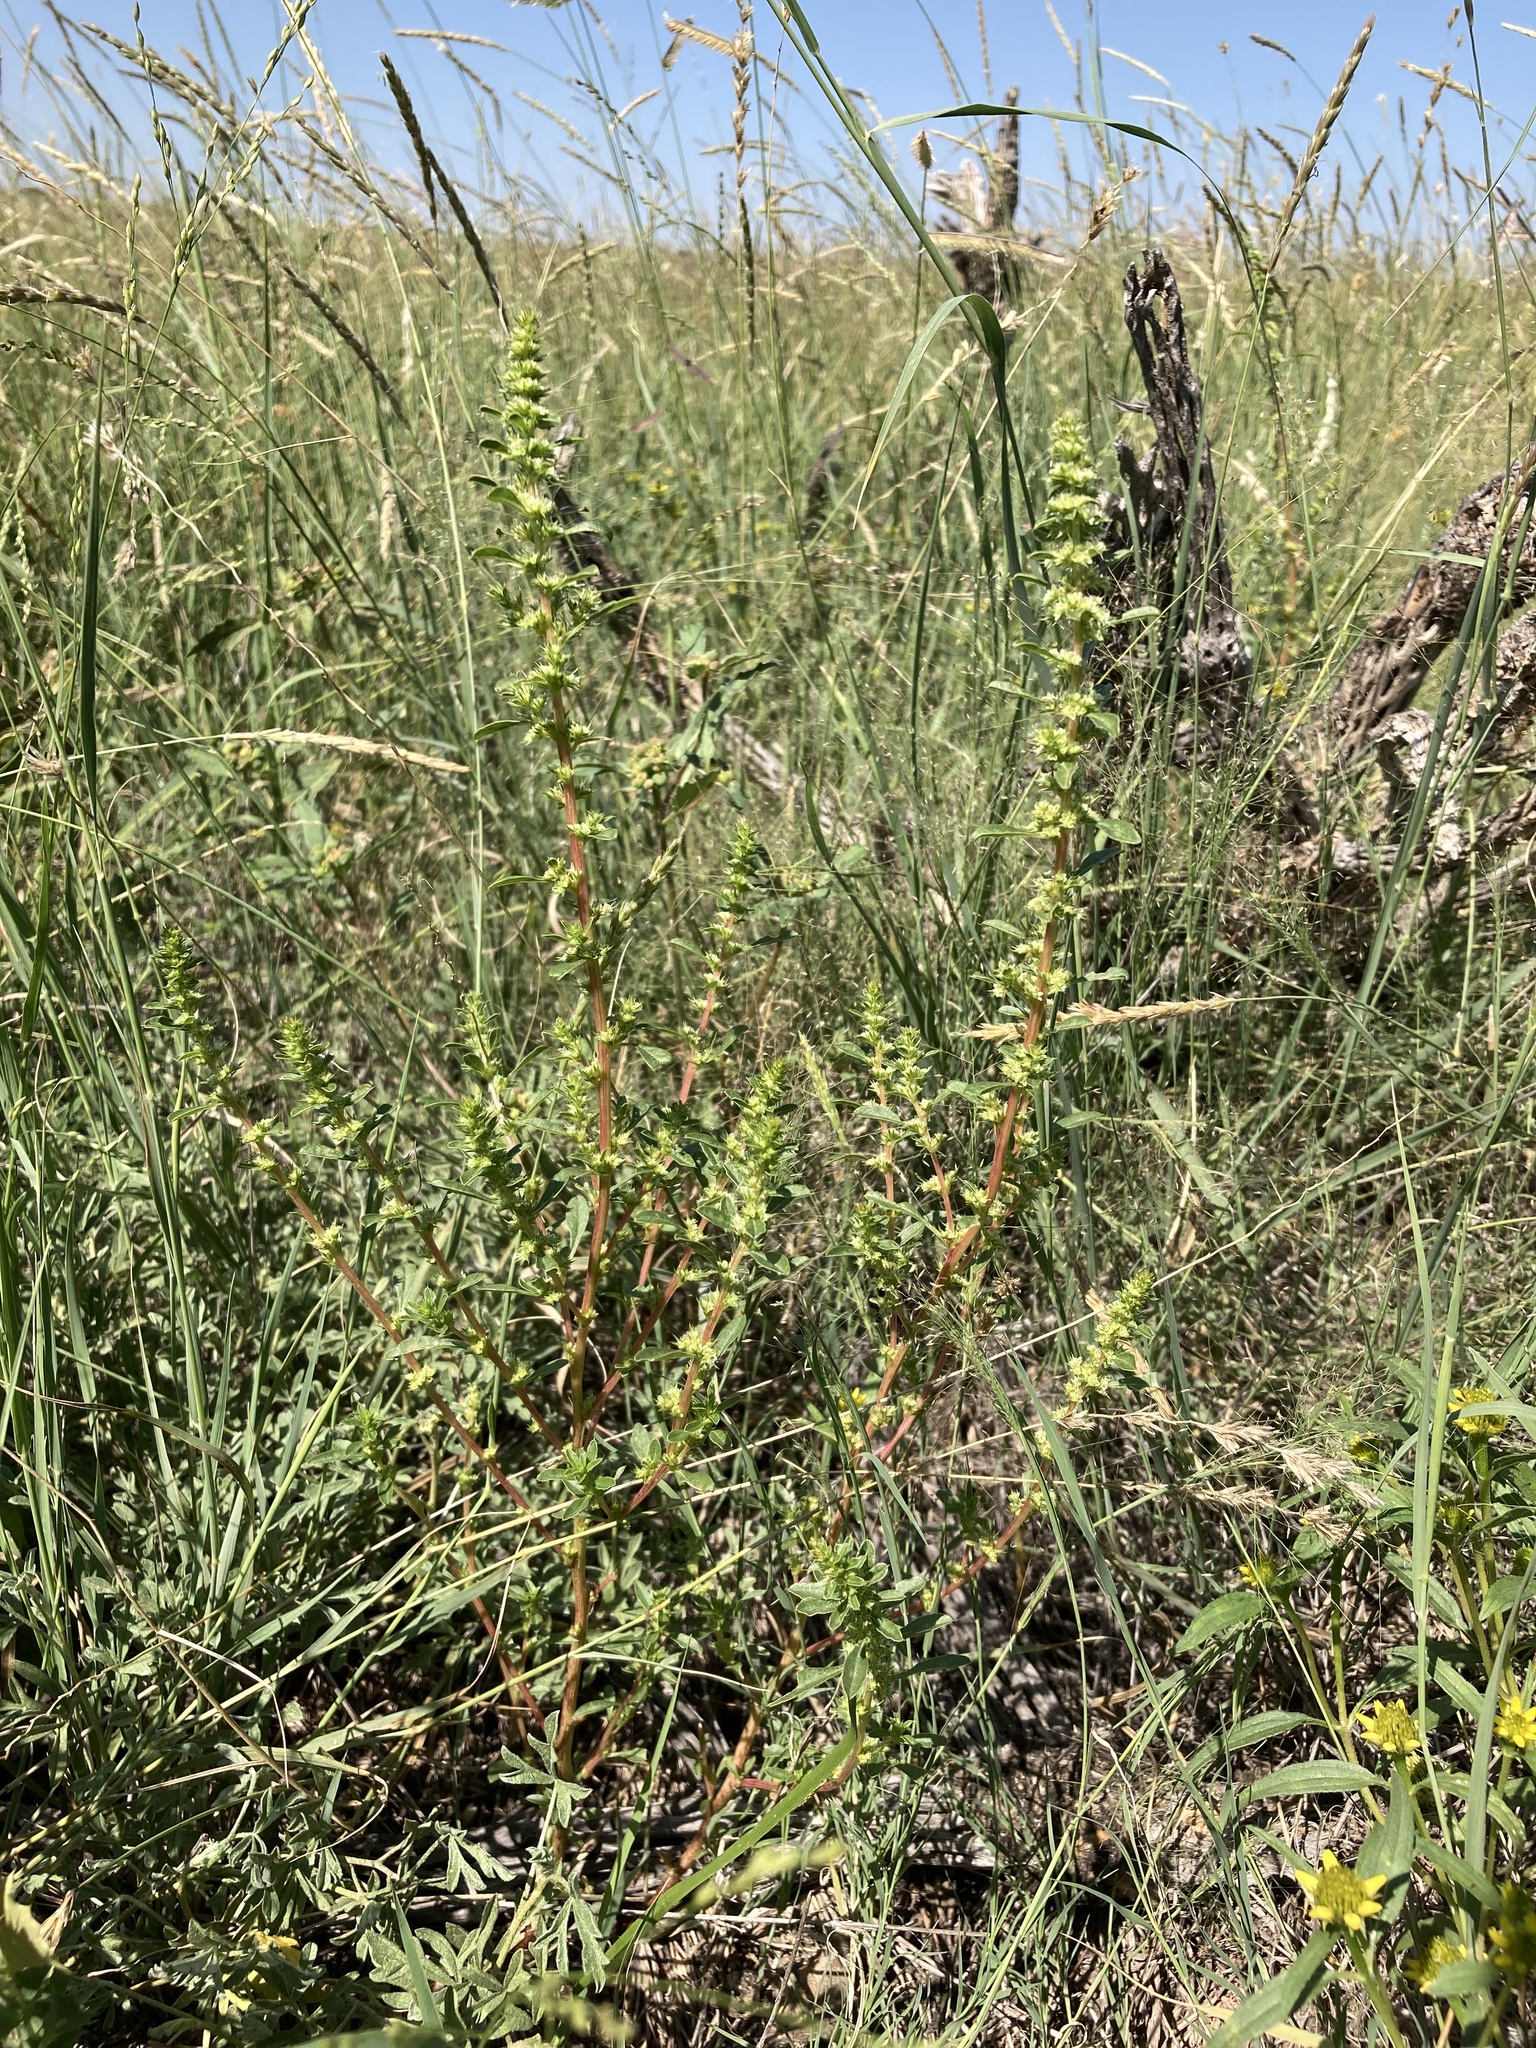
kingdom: Plantae
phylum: Tracheophyta
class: Magnoliopsida
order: Caryophyllales
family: Amaranthaceae
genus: Amaranthus
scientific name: Amaranthus torreyi
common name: Bigelow's amaranth
